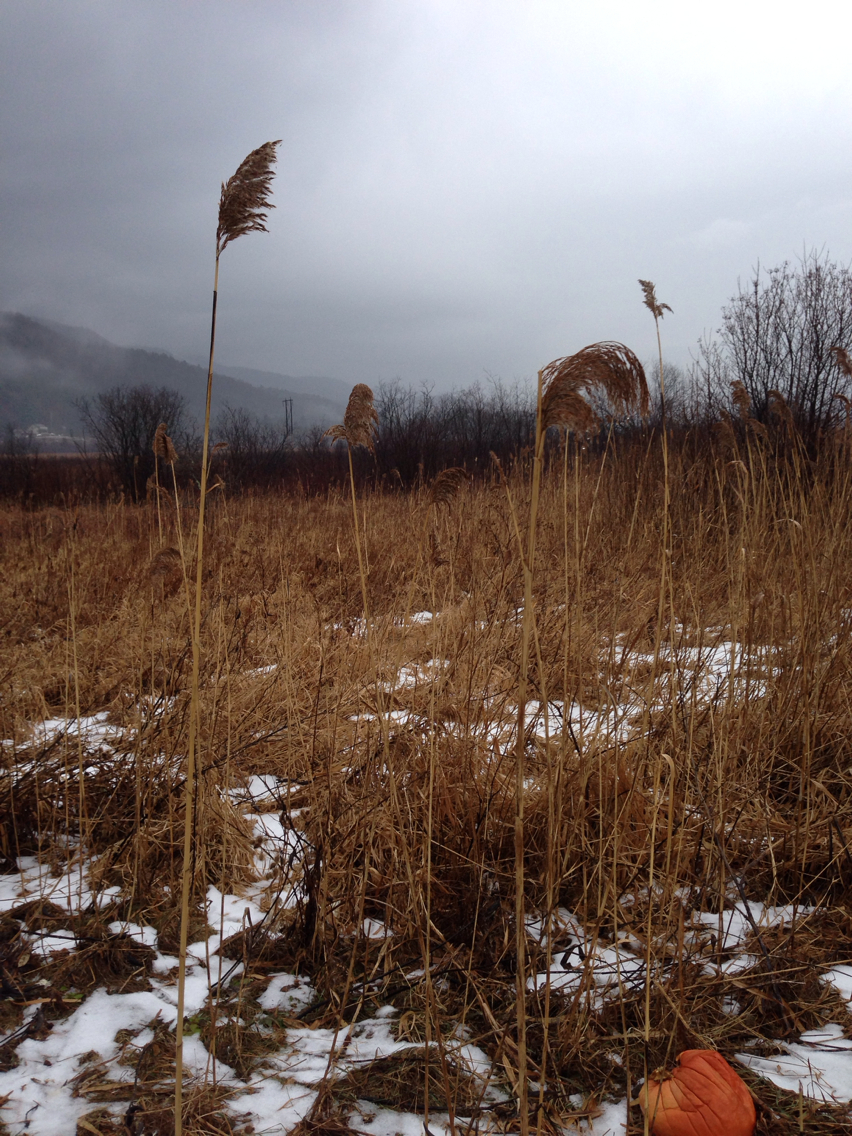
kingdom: Plantae
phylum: Tracheophyta
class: Liliopsida
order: Poales
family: Poaceae
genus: Phragmites
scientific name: Phragmites australis
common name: Common reed
